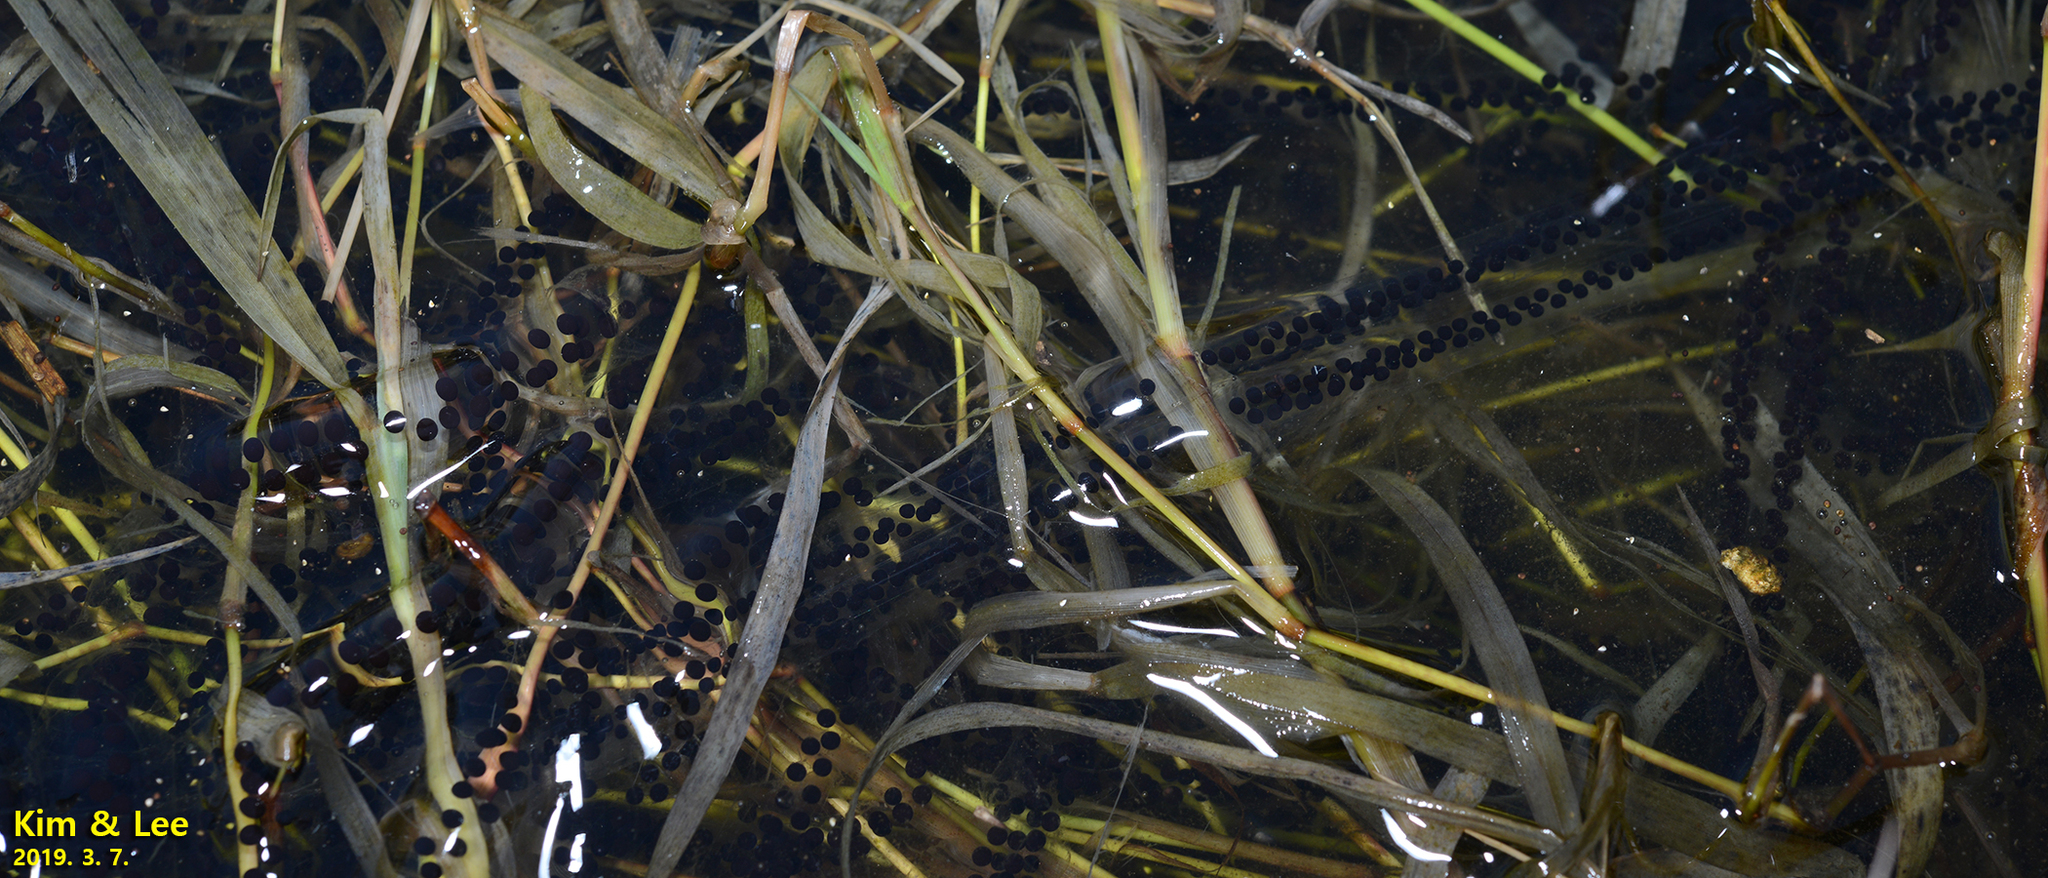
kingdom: Animalia
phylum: Chordata
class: Amphibia
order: Anura
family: Bufonidae
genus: Bufo
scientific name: Bufo gargarizans
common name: Asiatic toad
